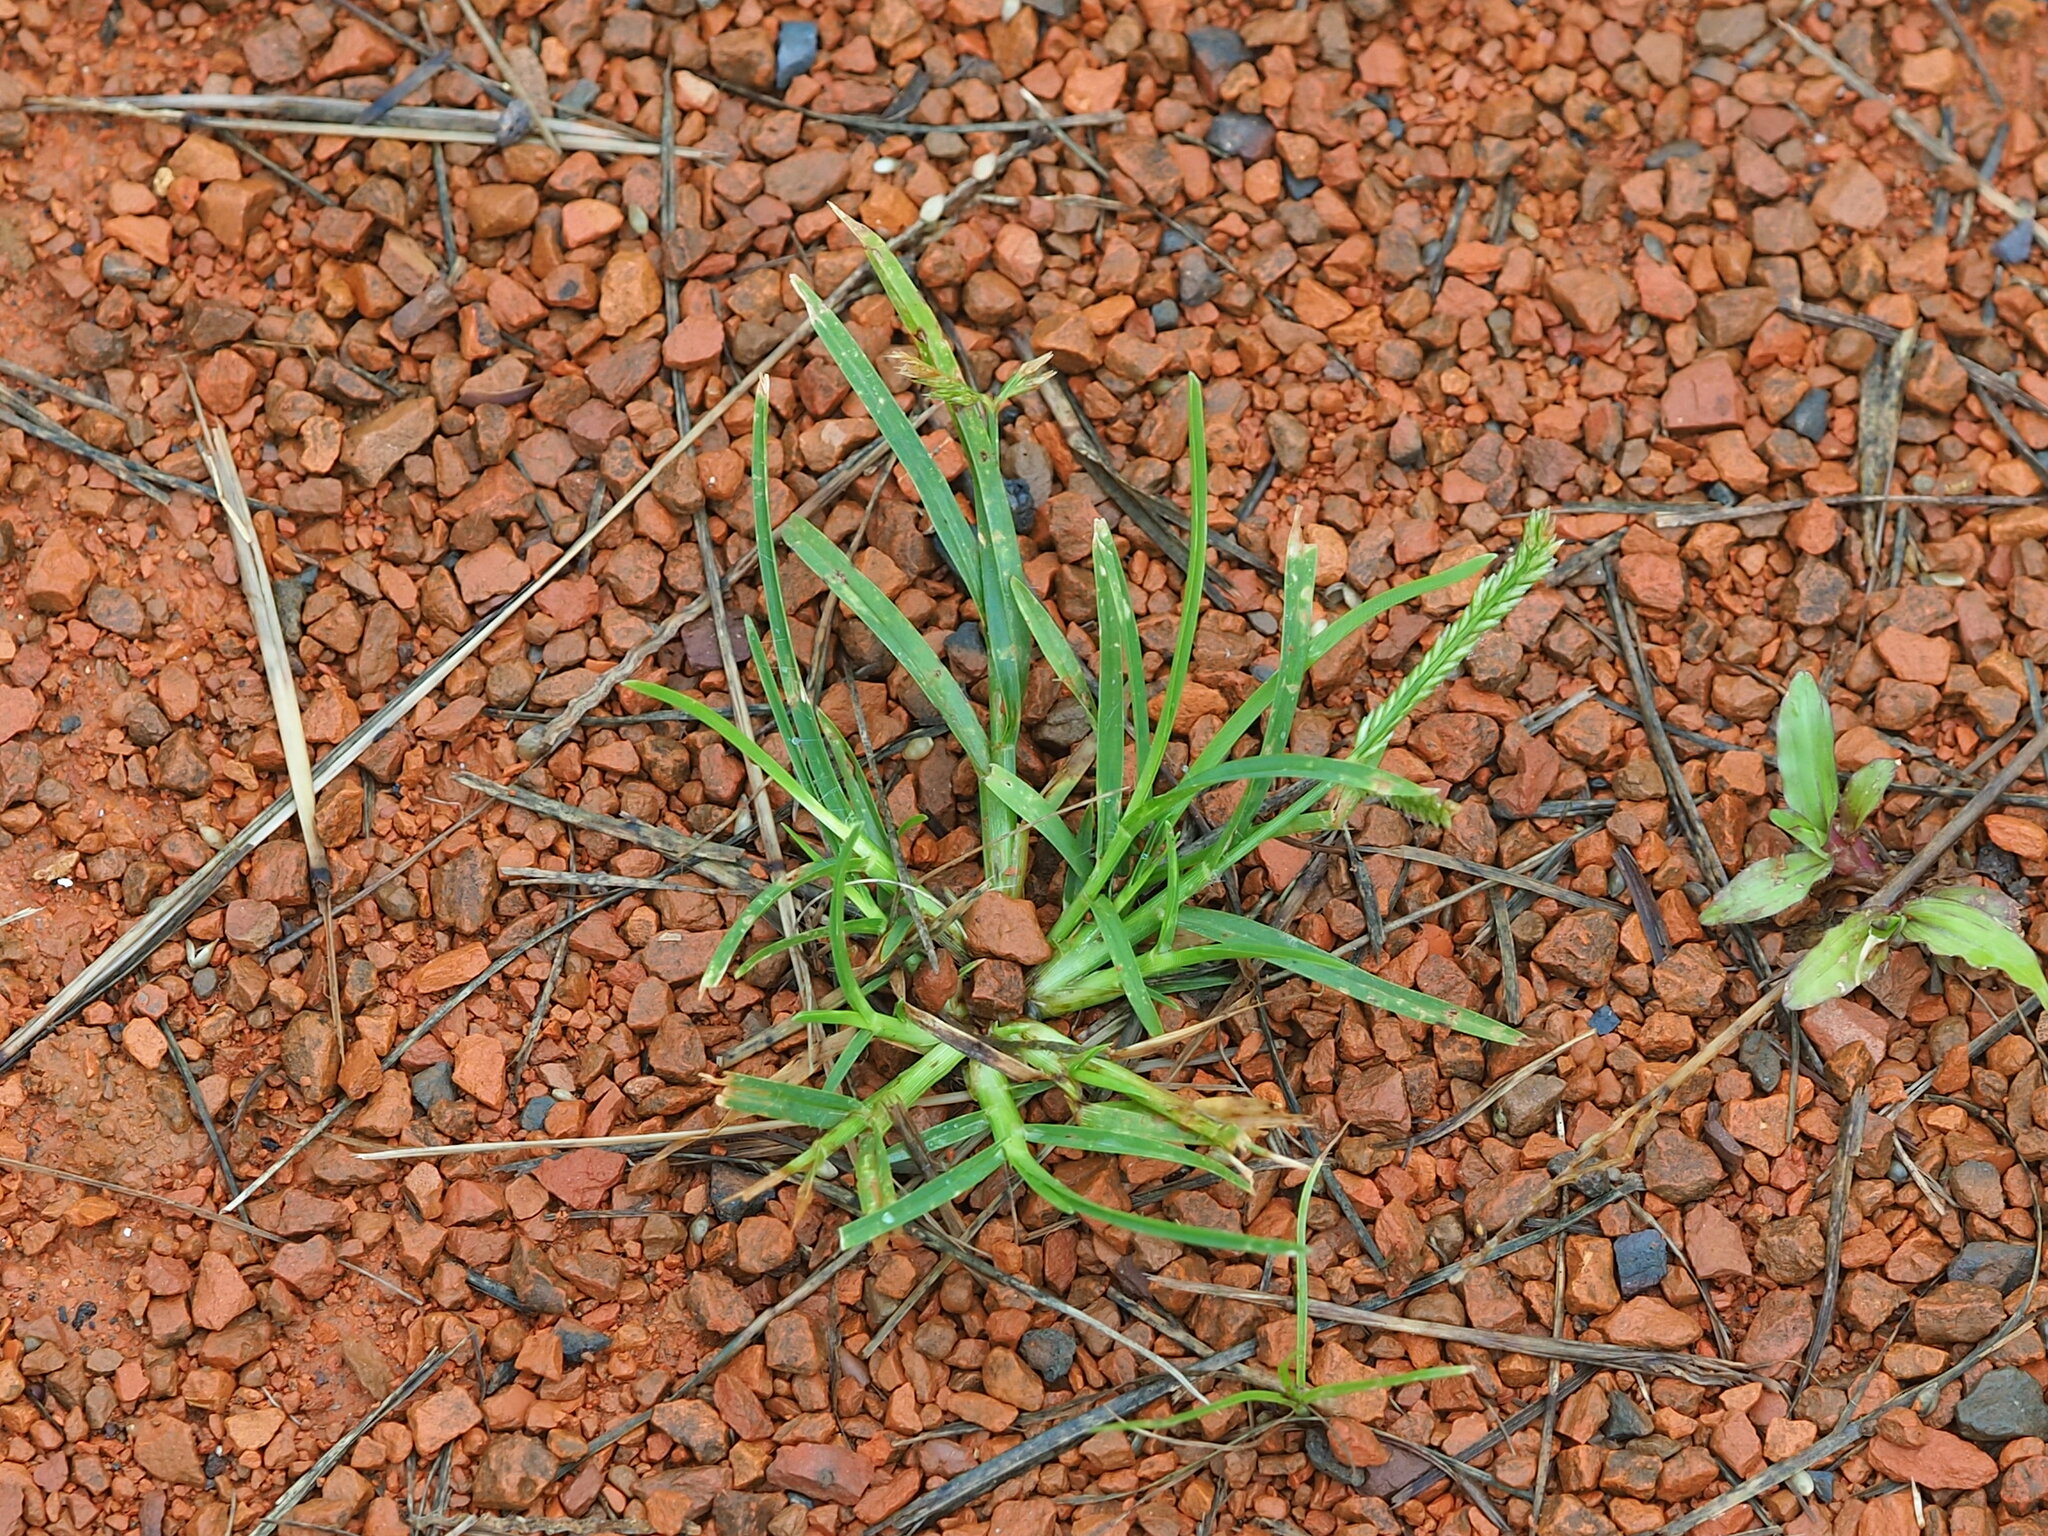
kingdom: Plantae
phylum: Tracheophyta
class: Liliopsida
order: Poales
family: Poaceae
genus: Eleusine
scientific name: Eleusine indica
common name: Yard-grass
